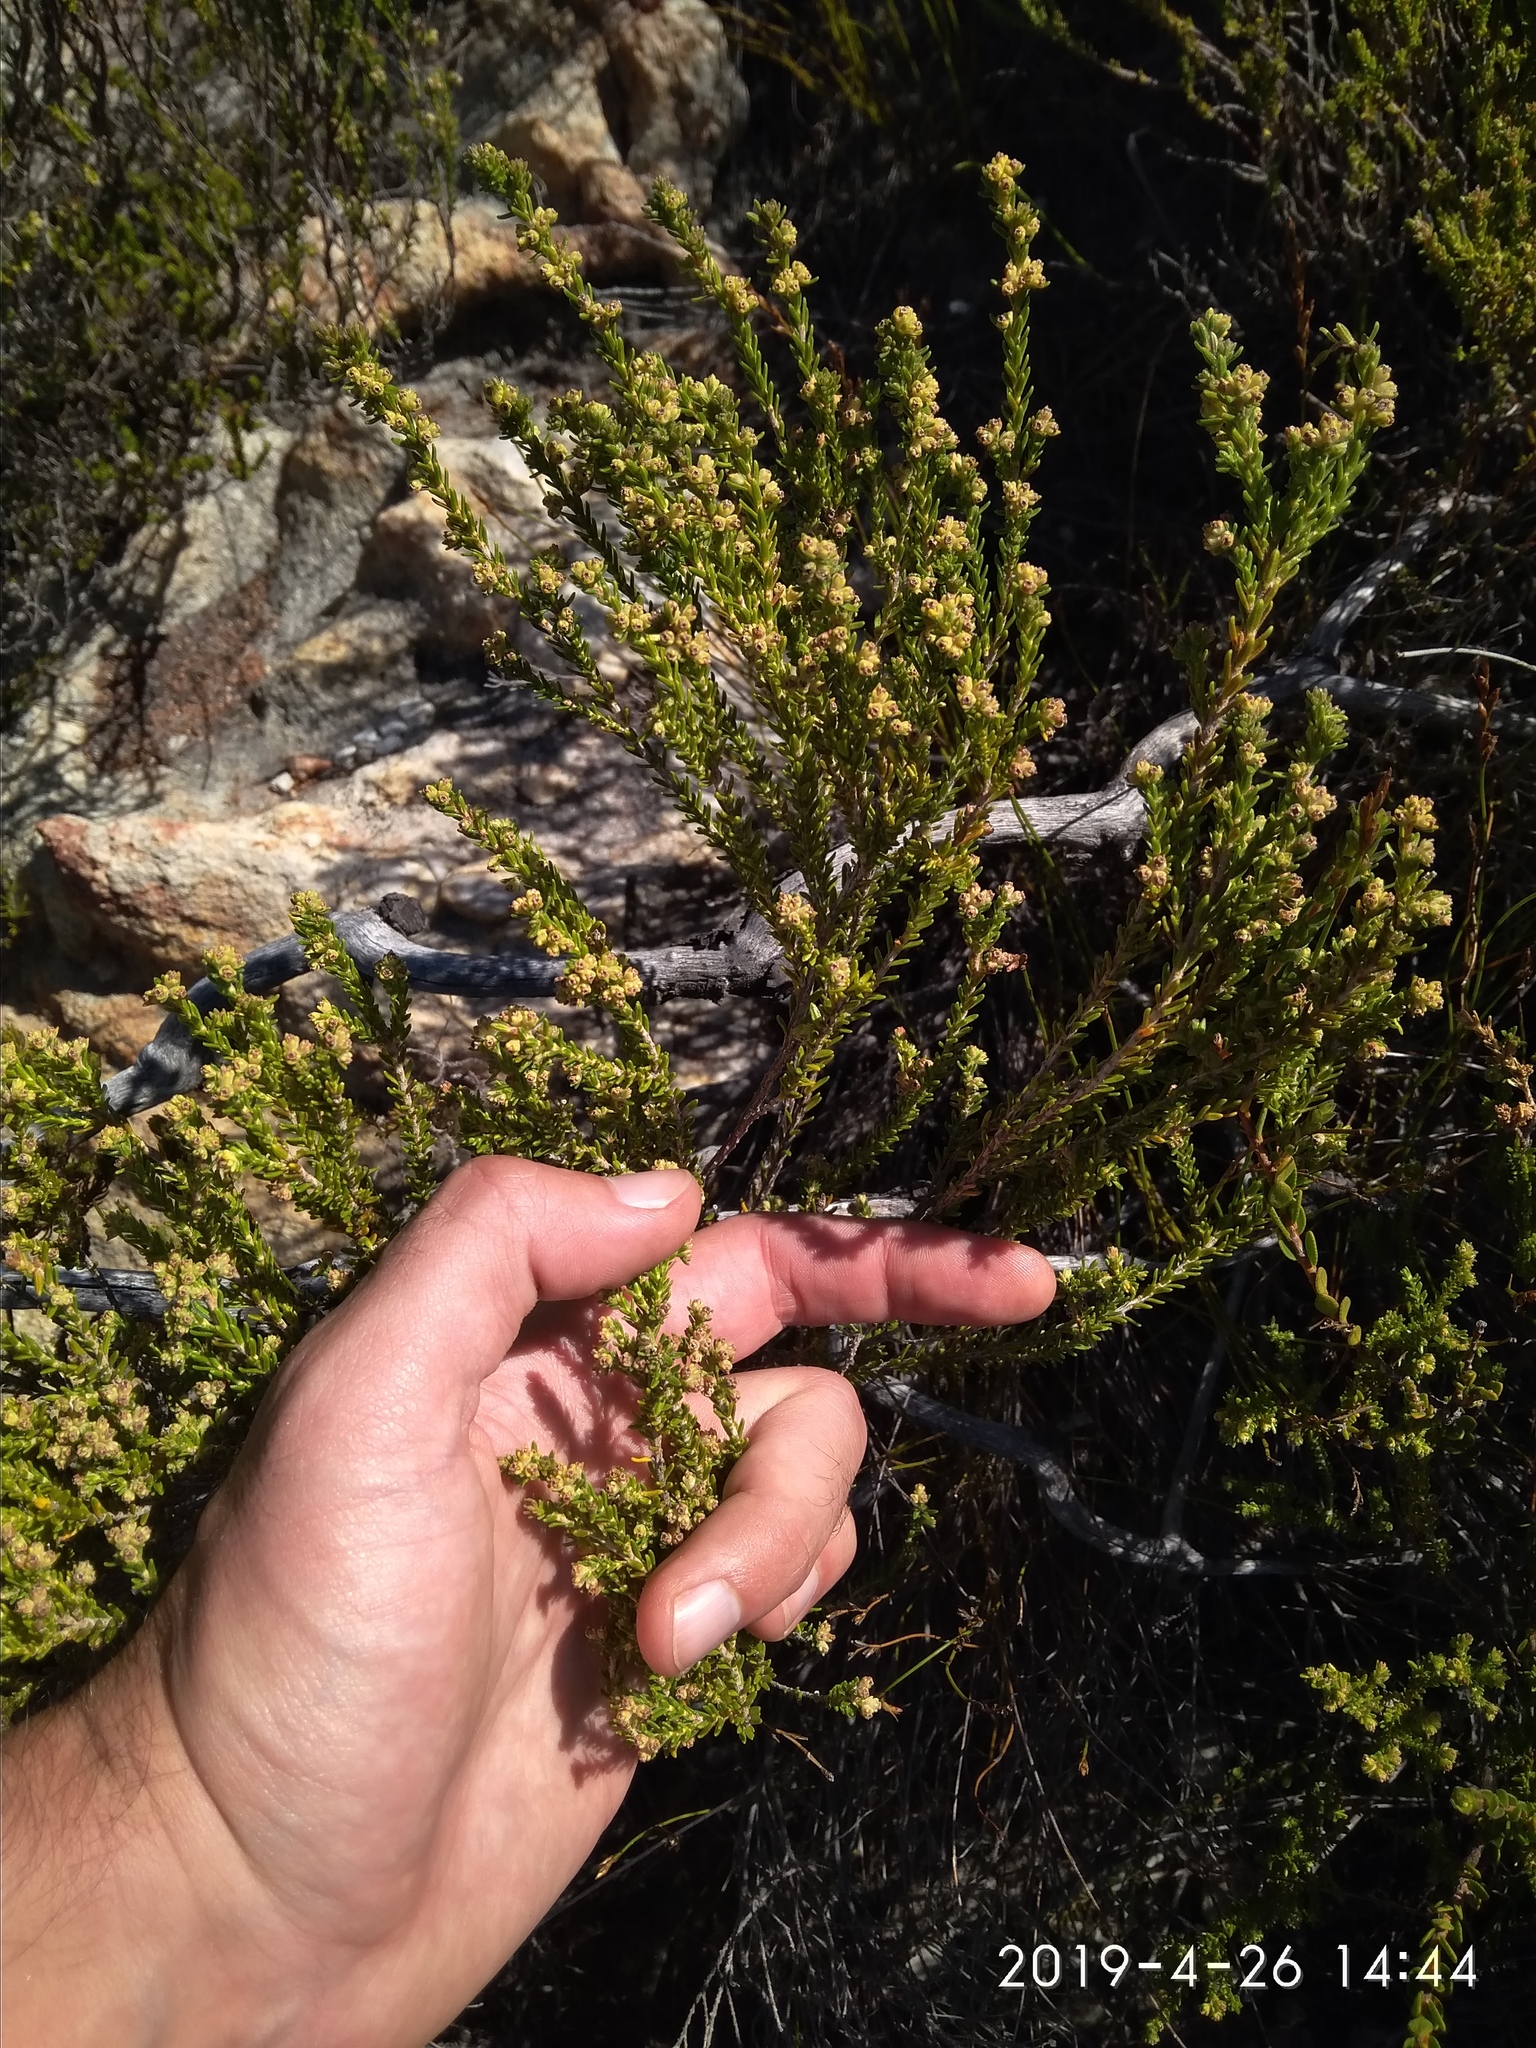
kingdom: Plantae
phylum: Tracheophyta
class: Magnoliopsida
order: Ericales
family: Ericaceae
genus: Erica
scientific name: Erica serrata
